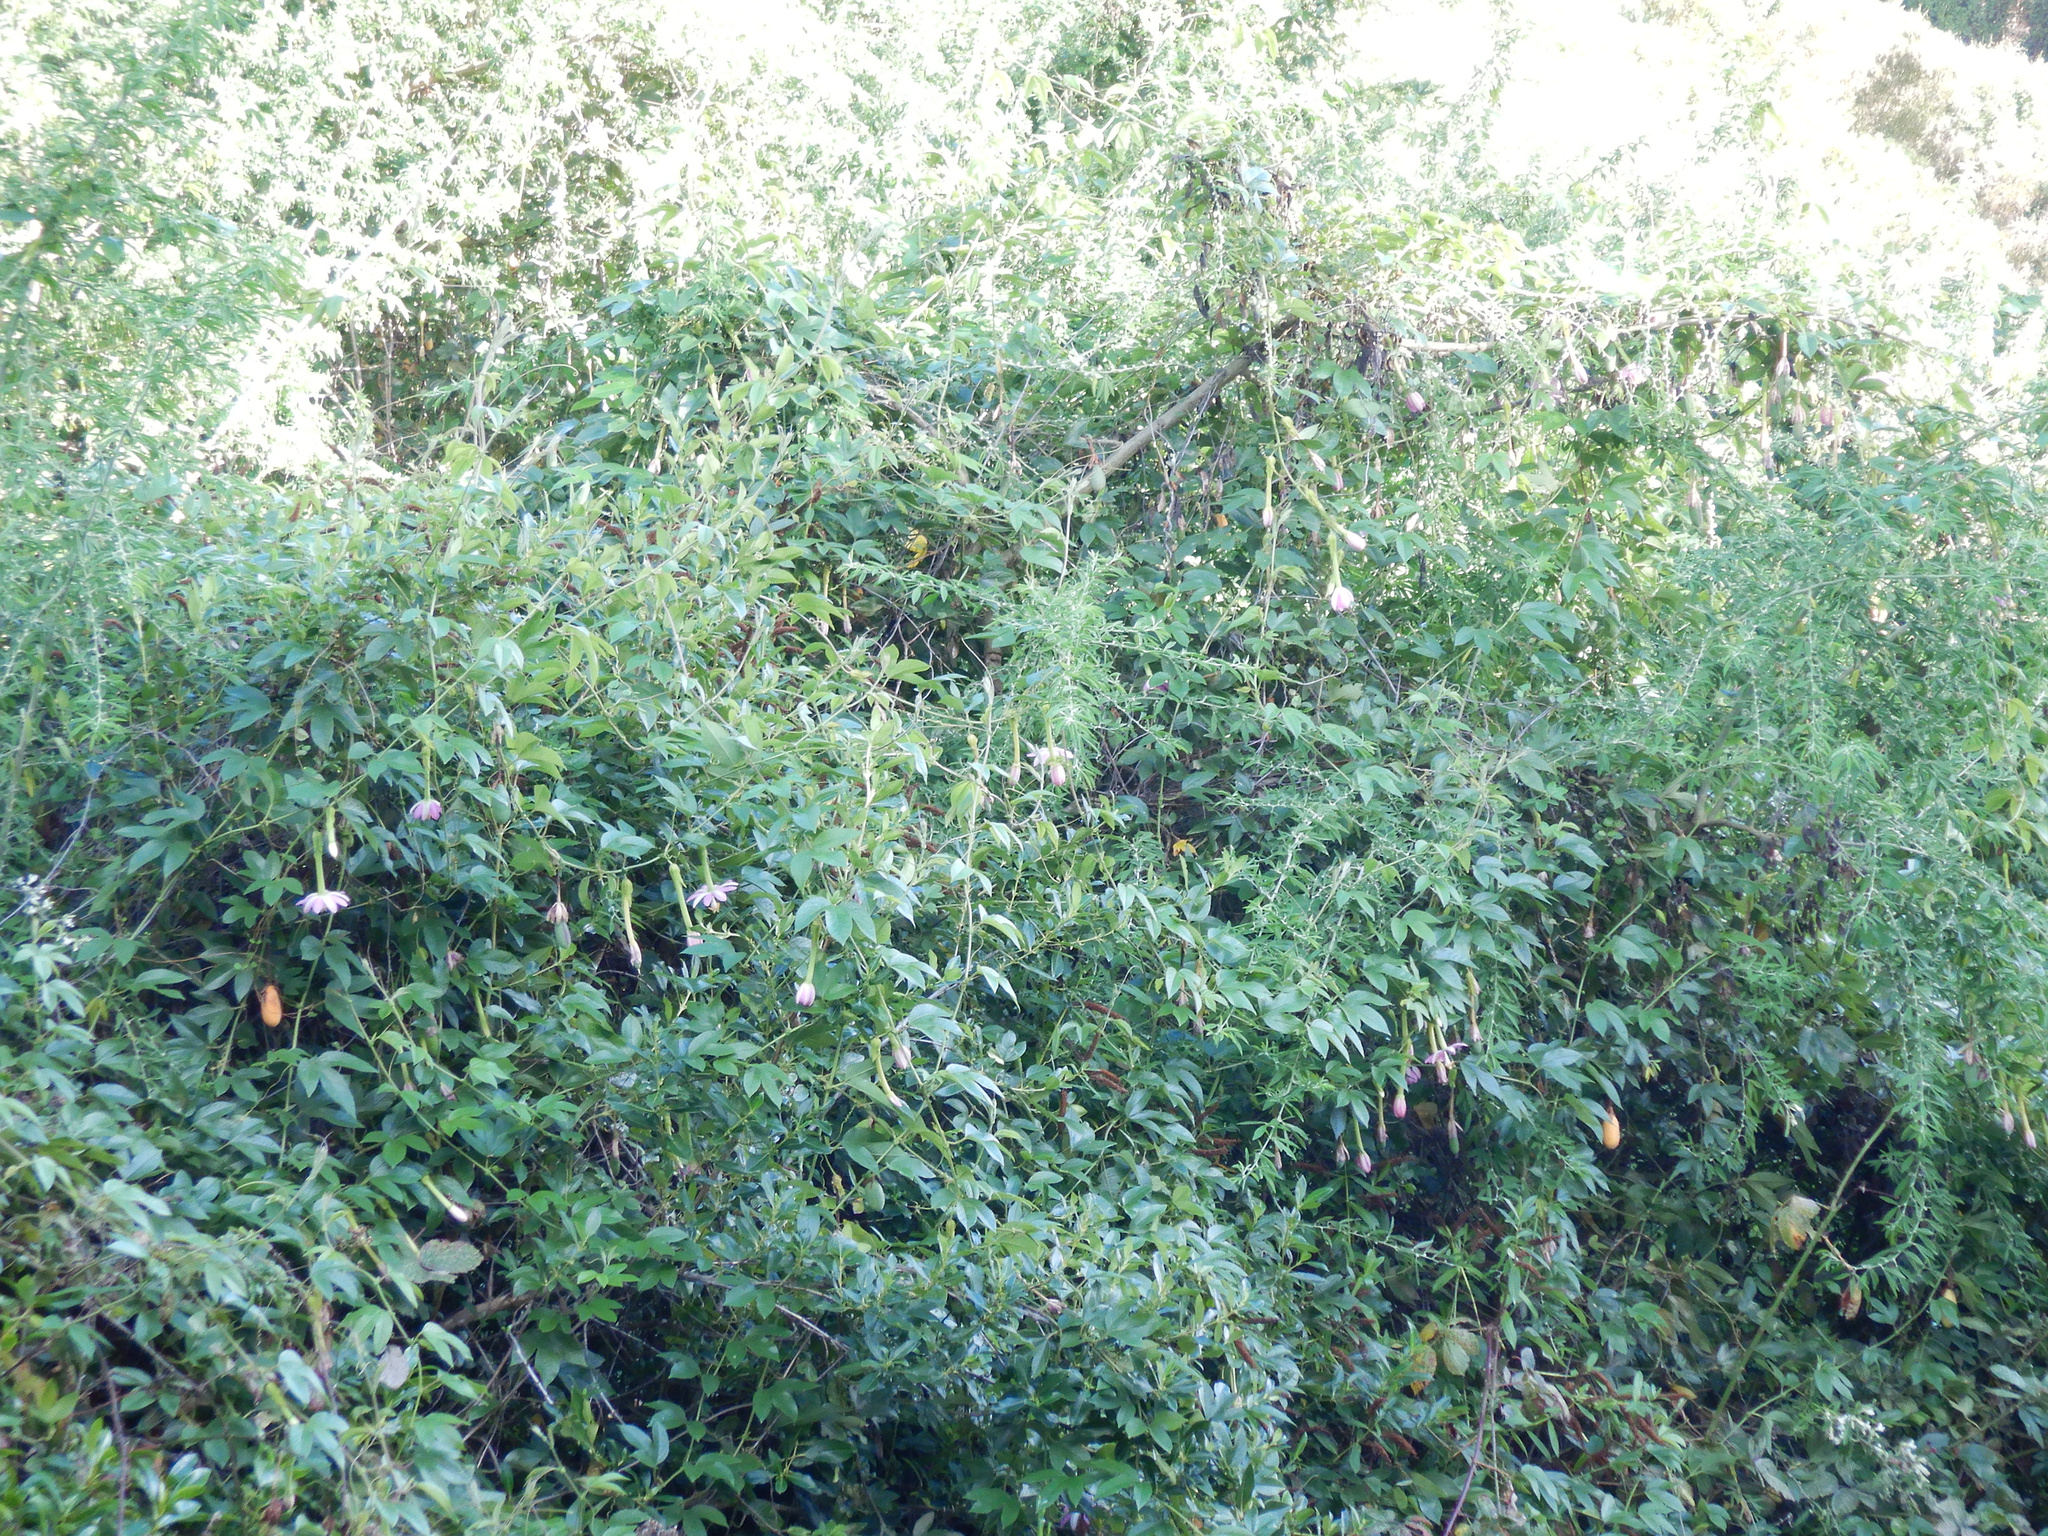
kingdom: Plantae
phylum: Tracheophyta
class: Magnoliopsida
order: Malpighiales
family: Passifloraceae
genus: Passiflora
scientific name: Passiflora tripartita
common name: Banana poka
